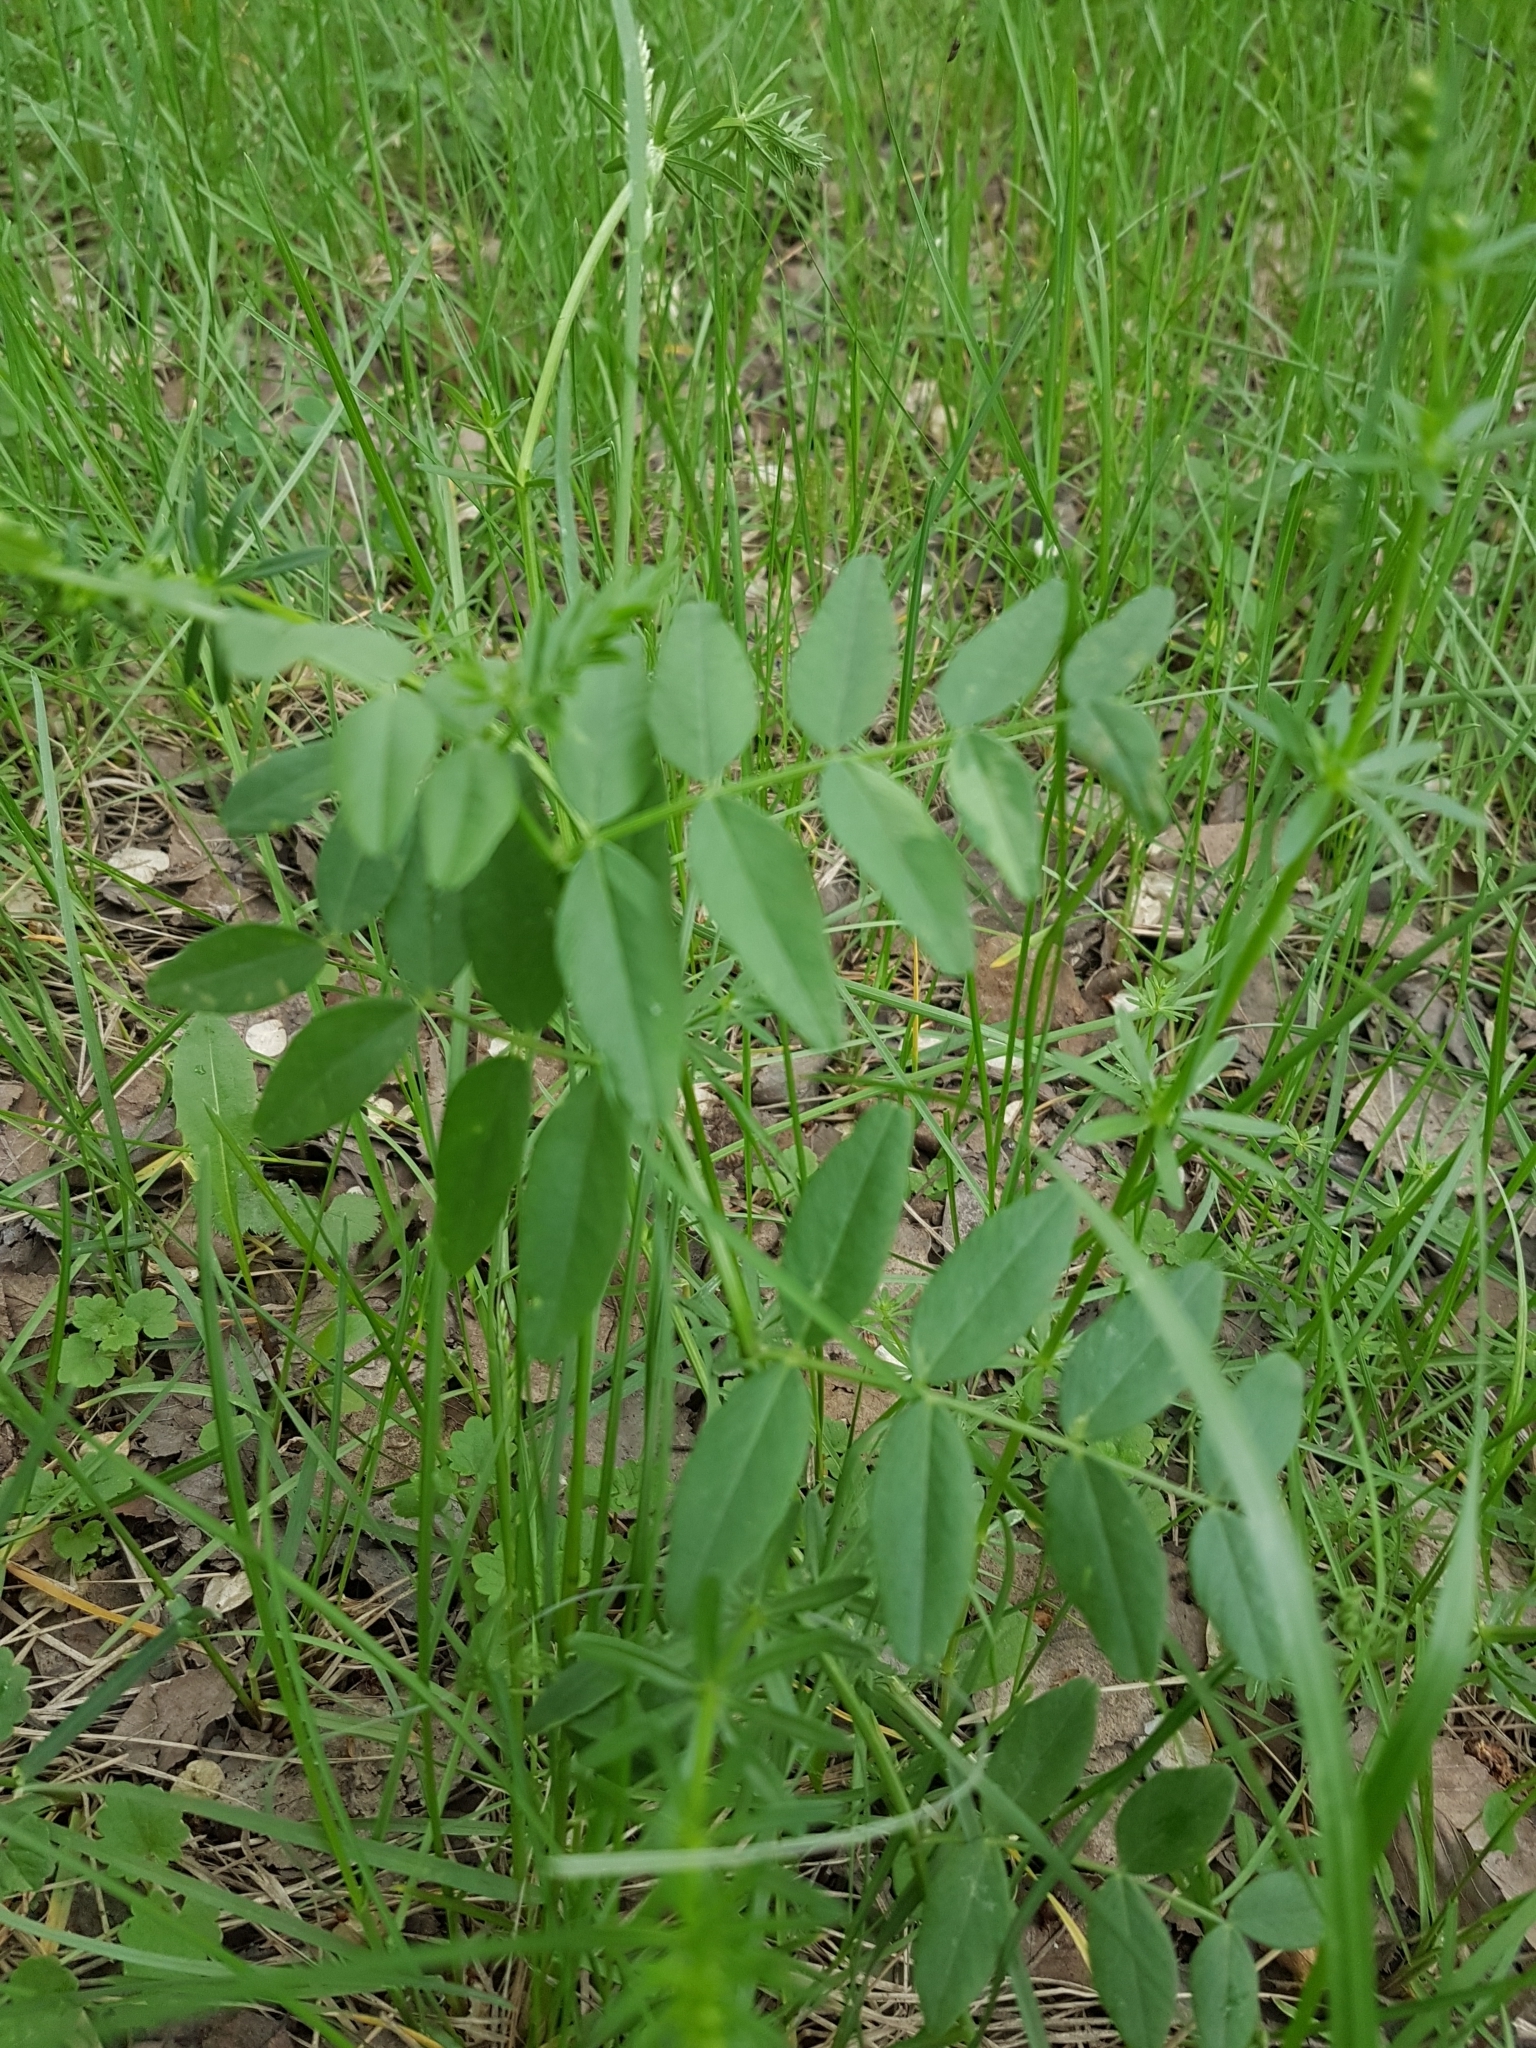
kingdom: Plantae
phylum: Tracheophyta
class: Magnoliopsida
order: Fabales
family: Fabaceae
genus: Vicia
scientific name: Vicia sepium
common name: Bush vetch
